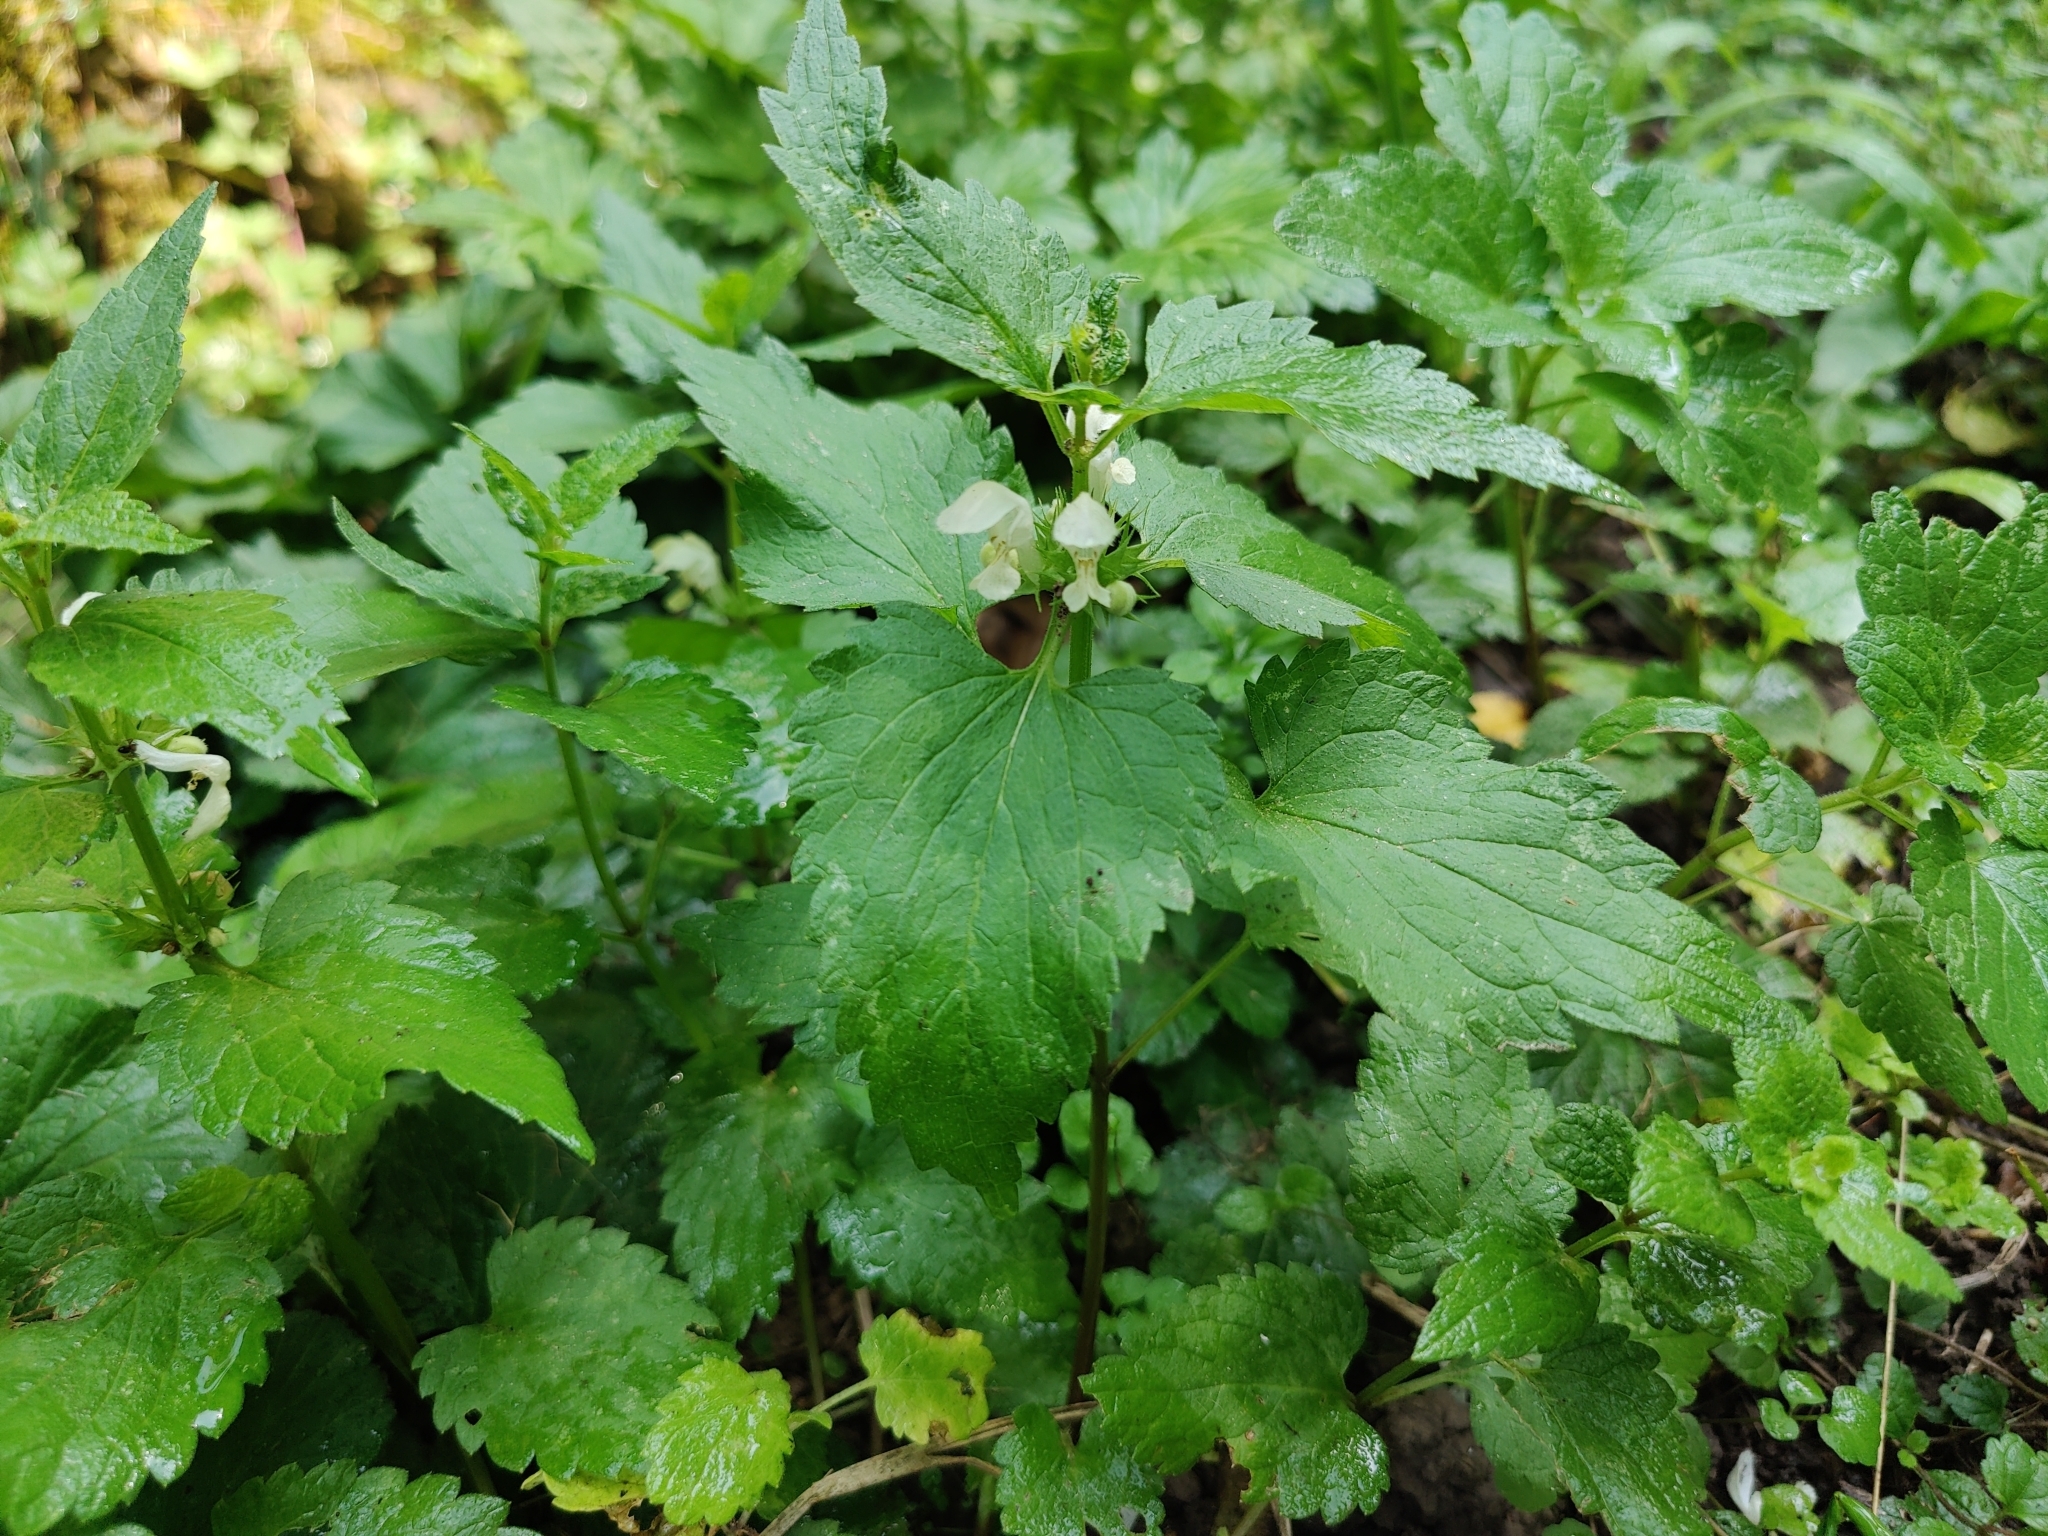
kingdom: Plantae
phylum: Tracheophyta
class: Magnoliopsida
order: Lamiales
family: Lamiaceae
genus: Lamium
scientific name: Lamium album
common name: White dead-nettle
